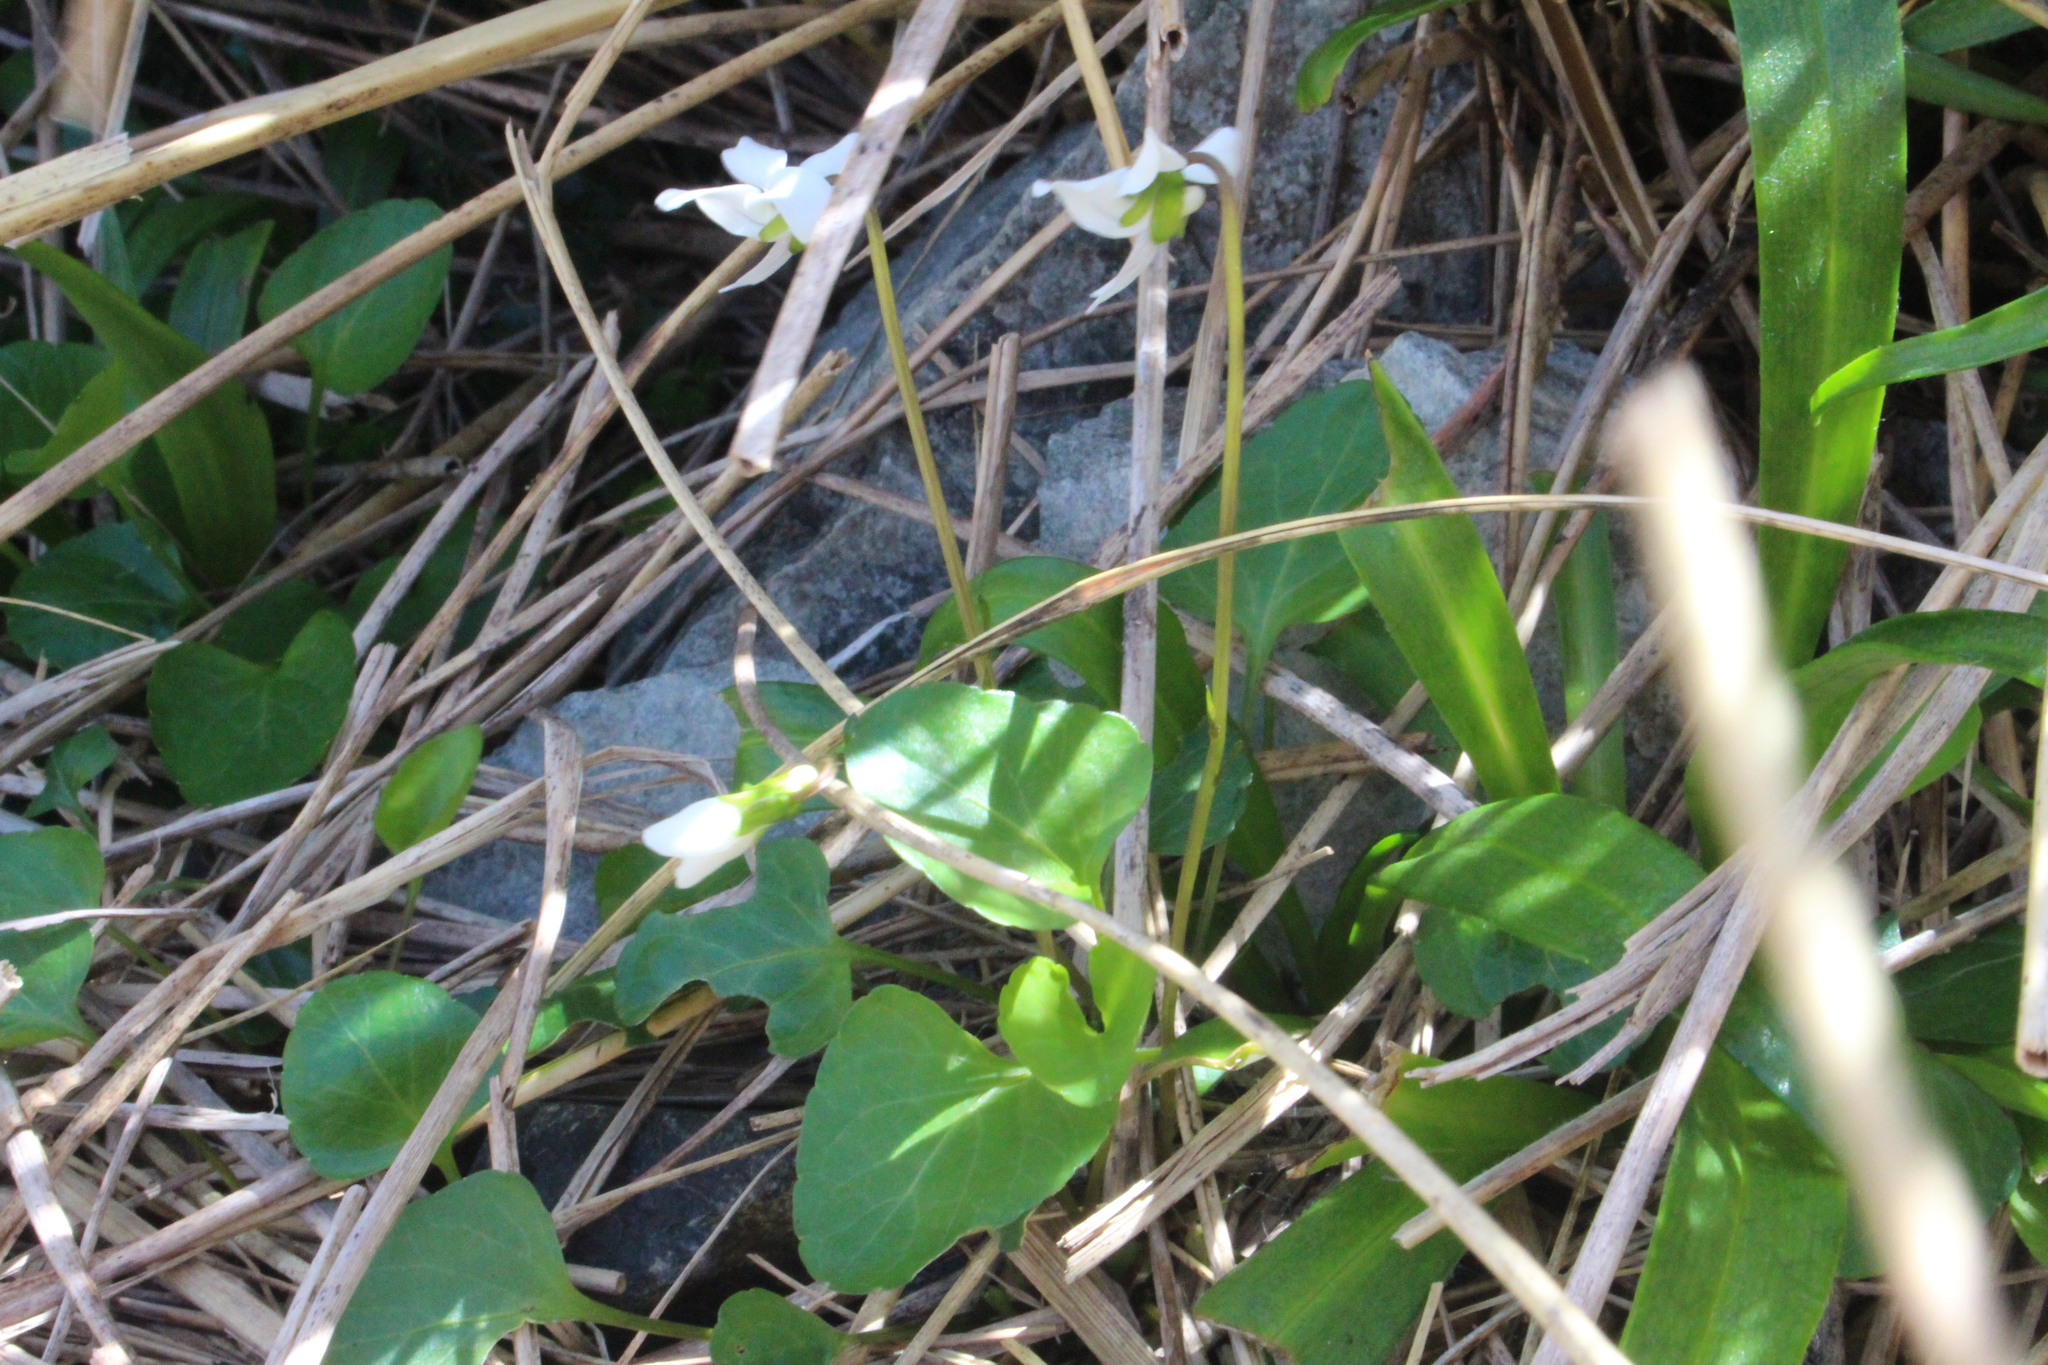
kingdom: Plantae
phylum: Tracheophyta
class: Magnoliopsida
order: Malpighiales
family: Violaceae
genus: Viola
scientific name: Viola cunninghamii
